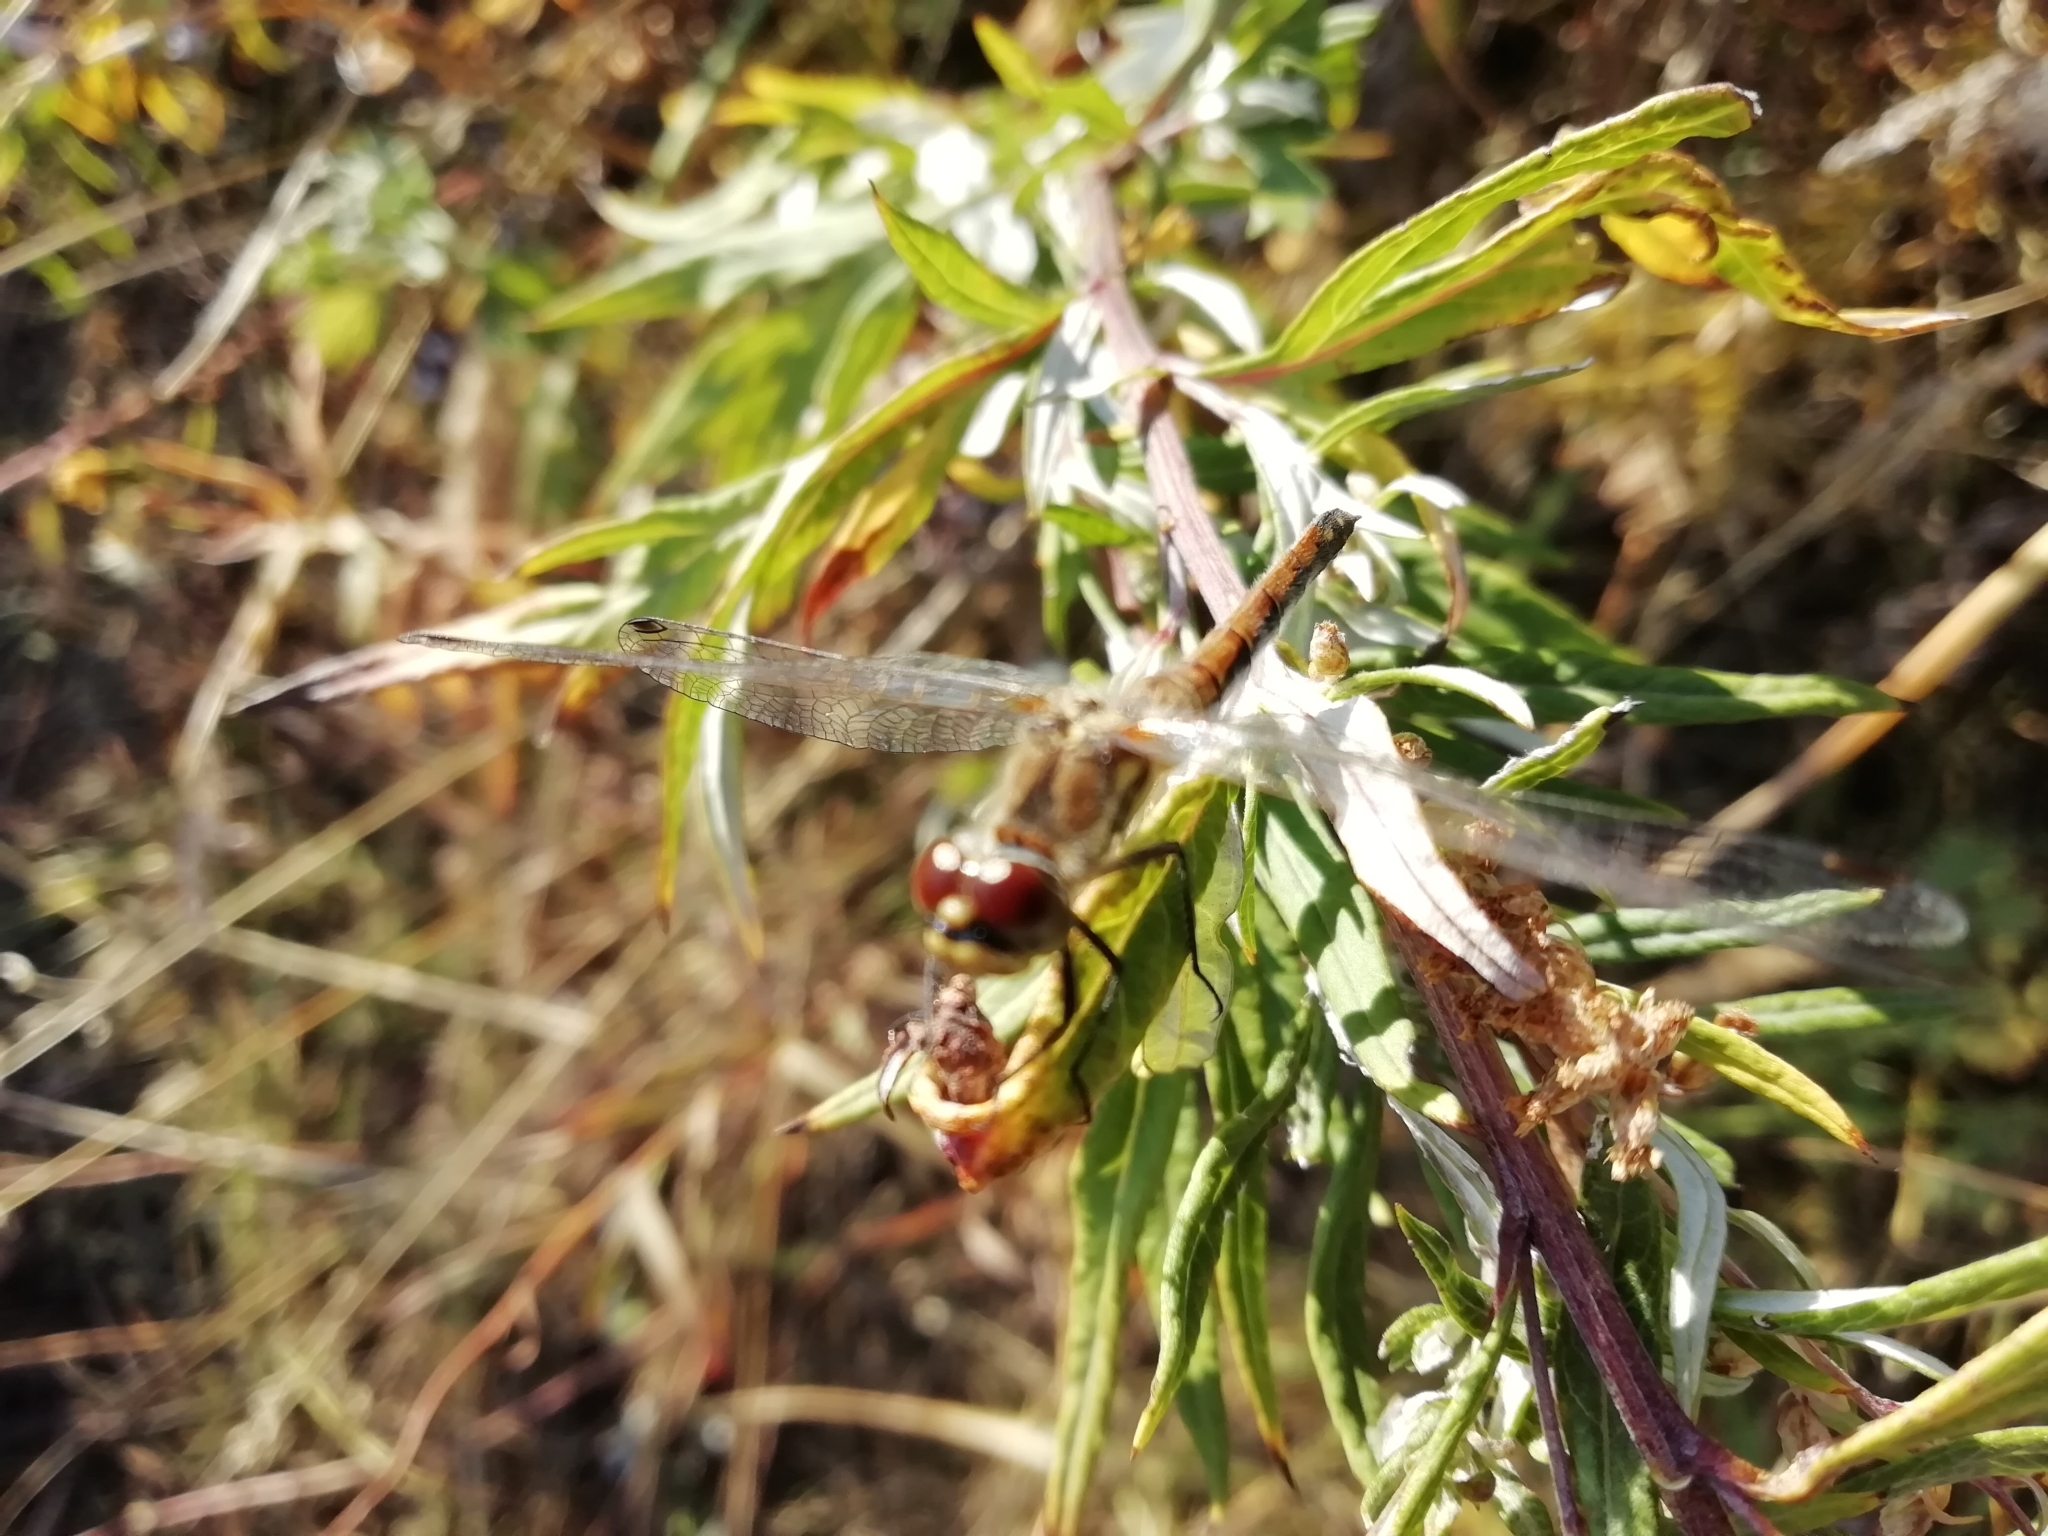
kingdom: Animalia
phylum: Arthropoda
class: Insecta
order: Odonata
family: Libellulidae
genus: Sympetrum
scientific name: Sympetrum danae
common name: Black darter
